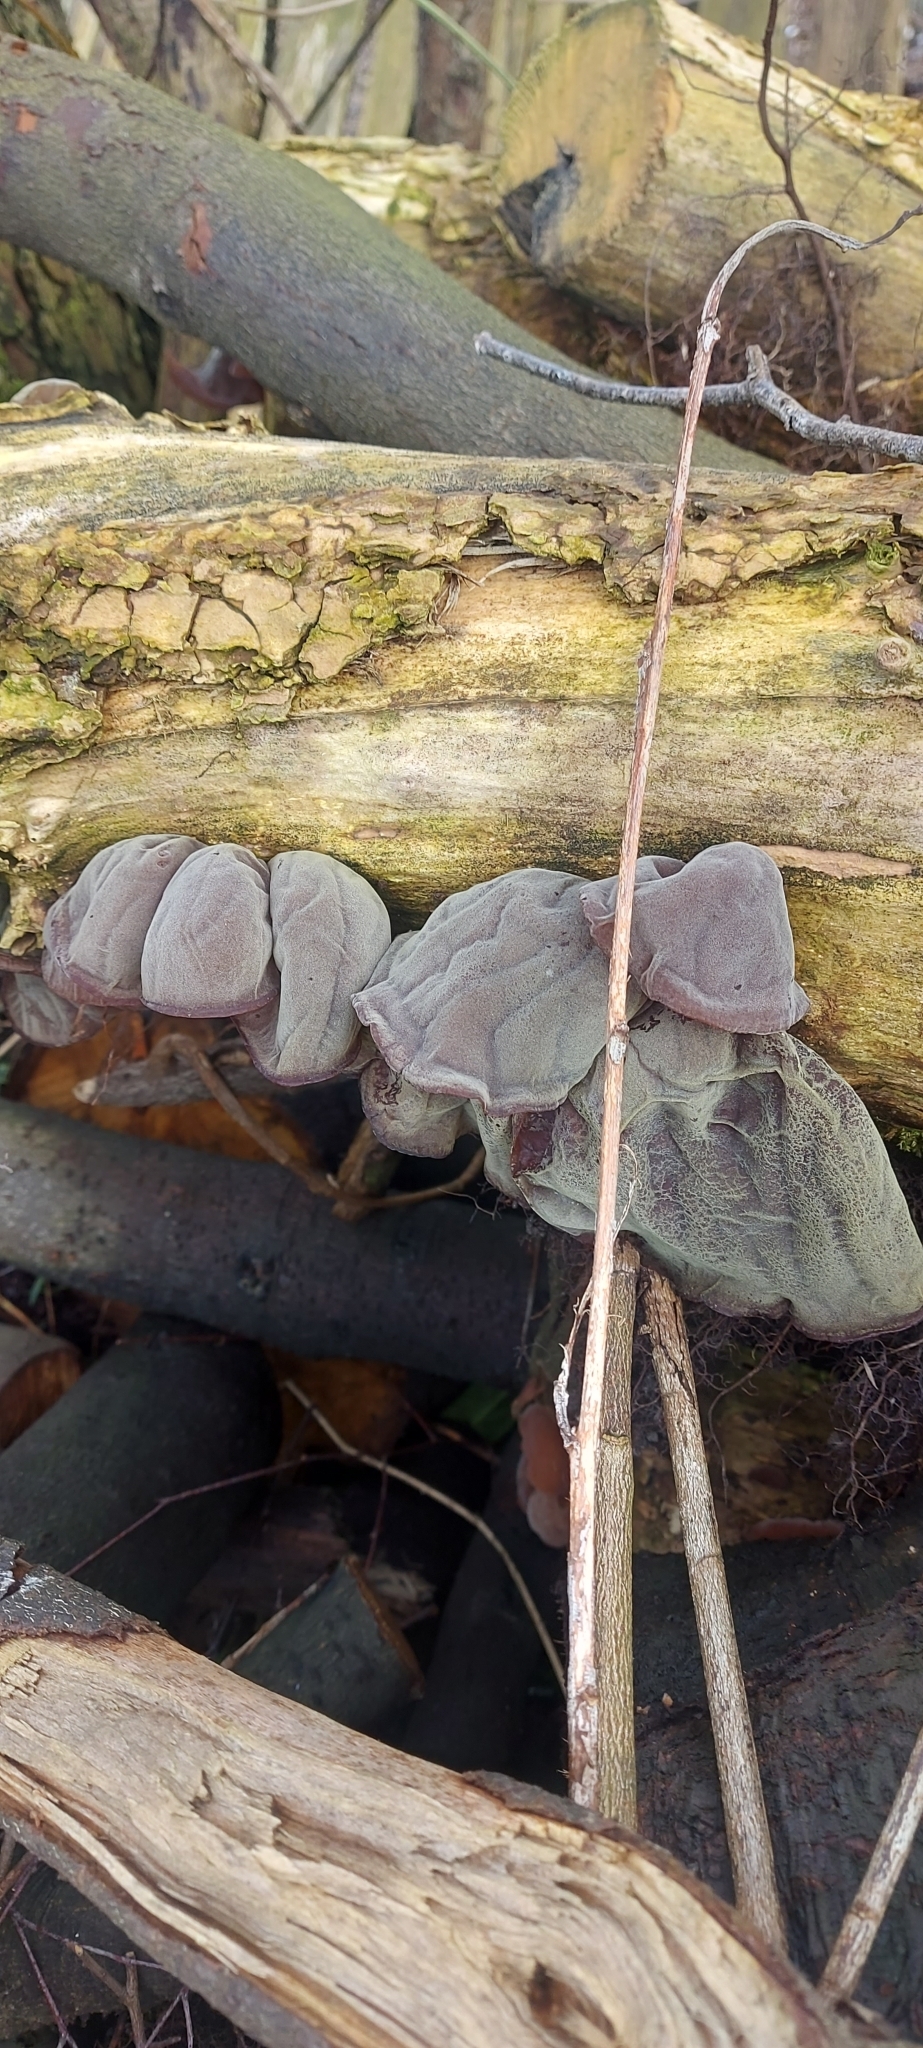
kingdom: Fungi
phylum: Basidiomycota
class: Agaricomycetes
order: Auriculariales
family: Auriculariaceae
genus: Auricularia
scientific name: Auricularia auricula-judae
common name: Jelly ear
